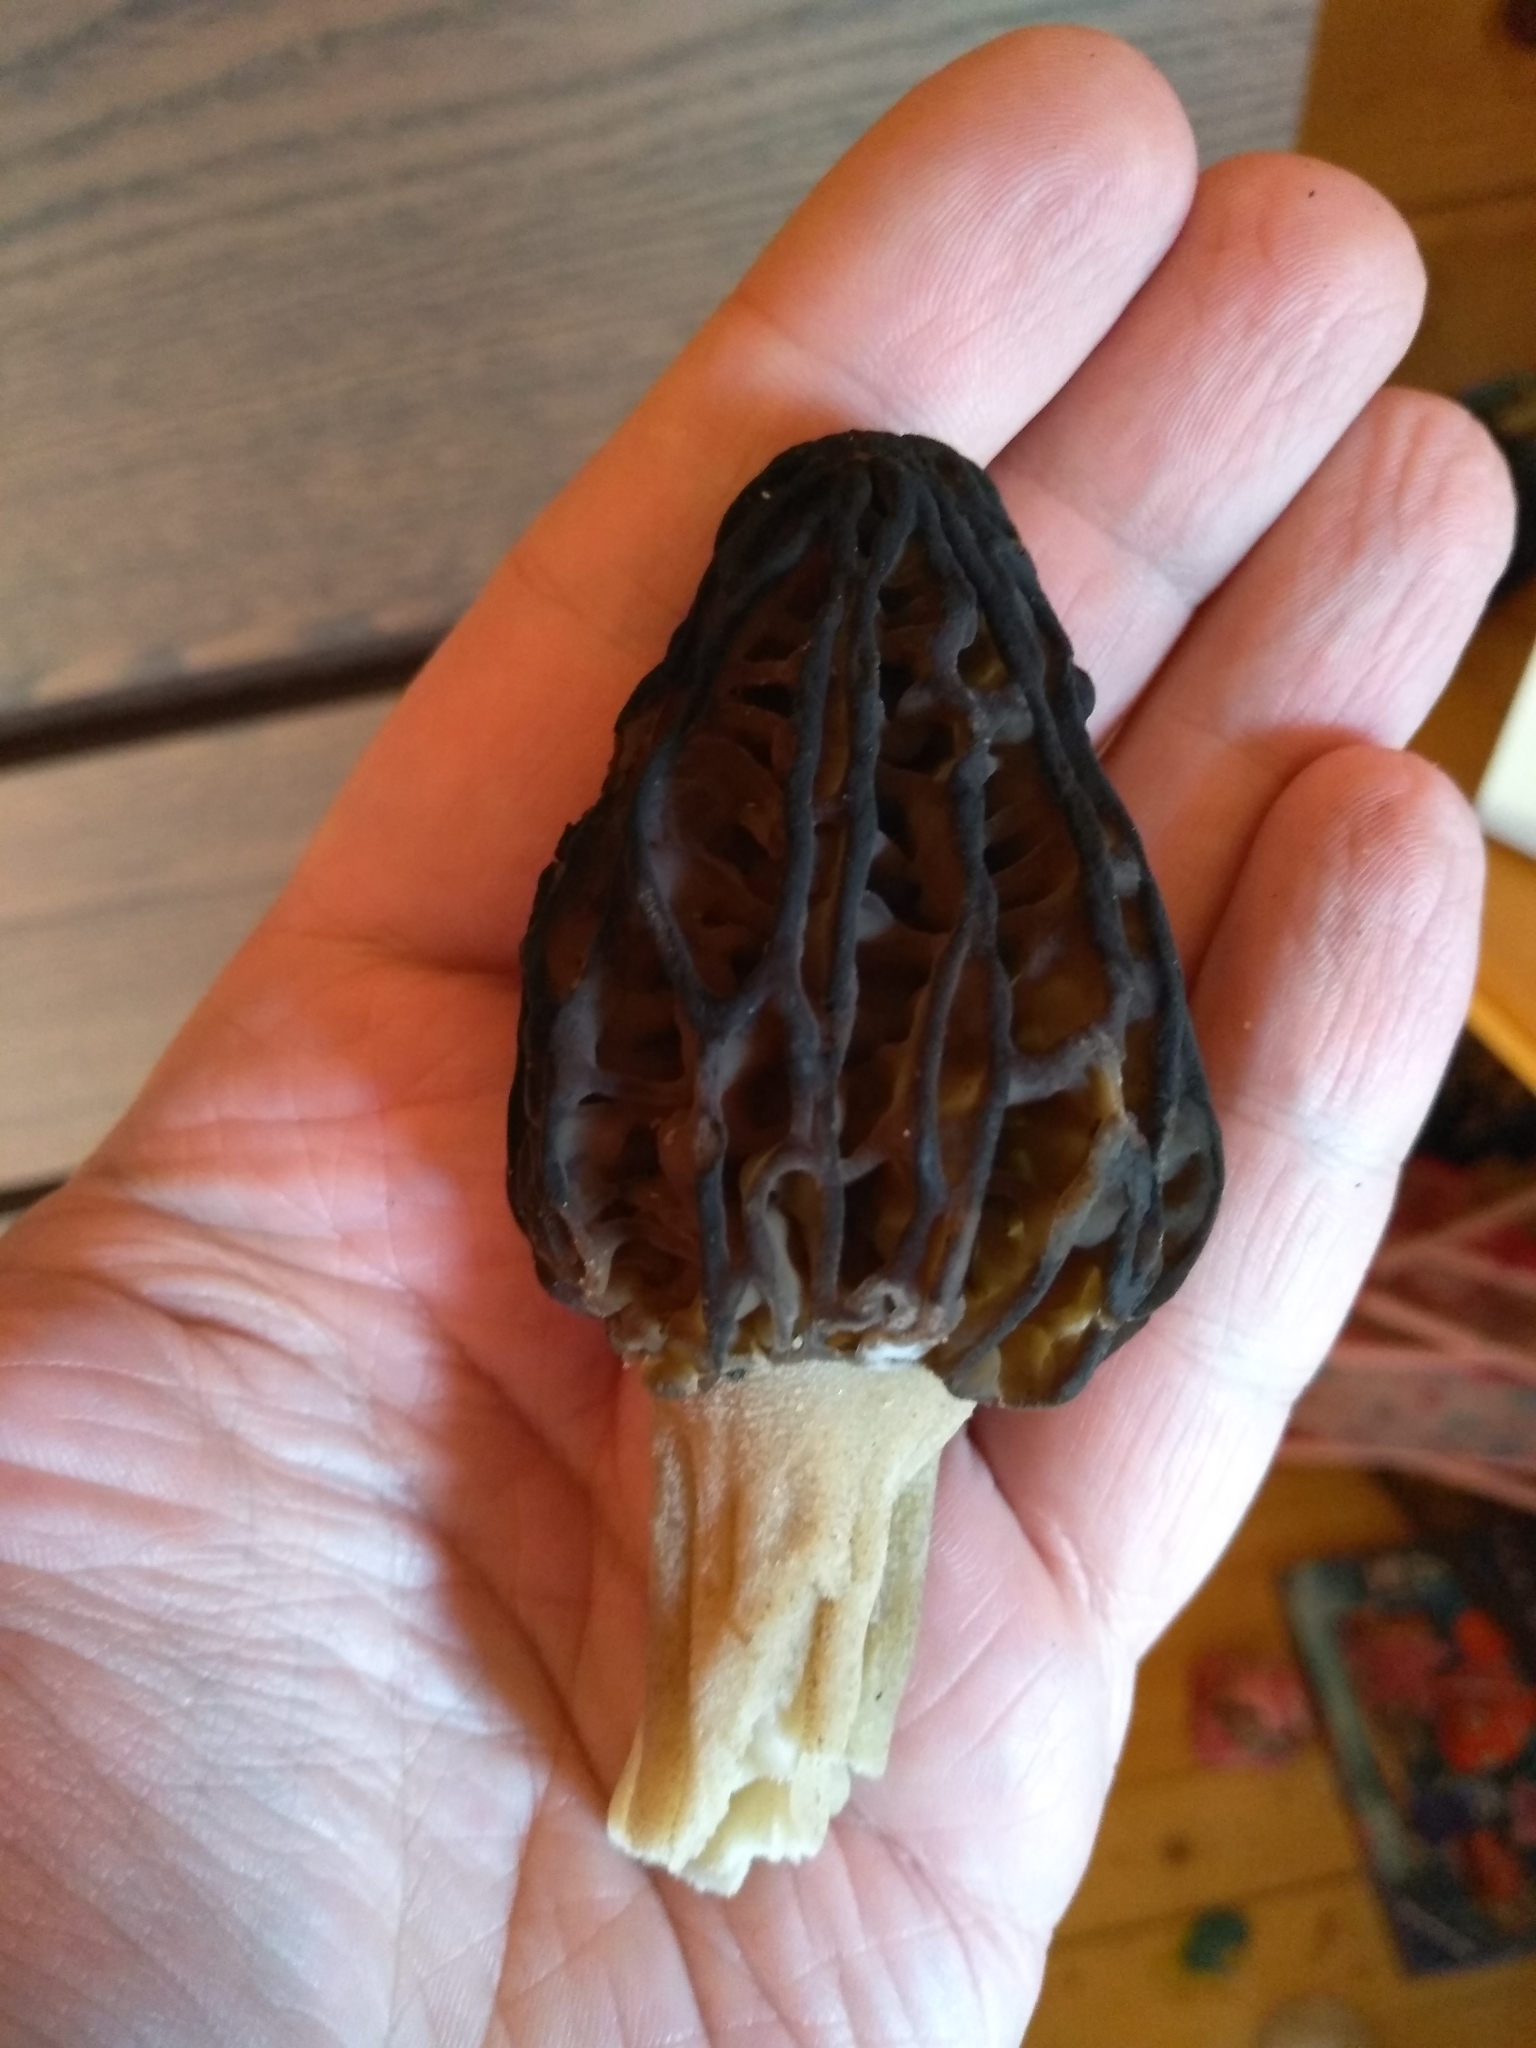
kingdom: Fungi
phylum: Ascomycota
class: Pezizomycetes
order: Pezizales
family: Morchellaceae
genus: Morchella
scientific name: Morchella
